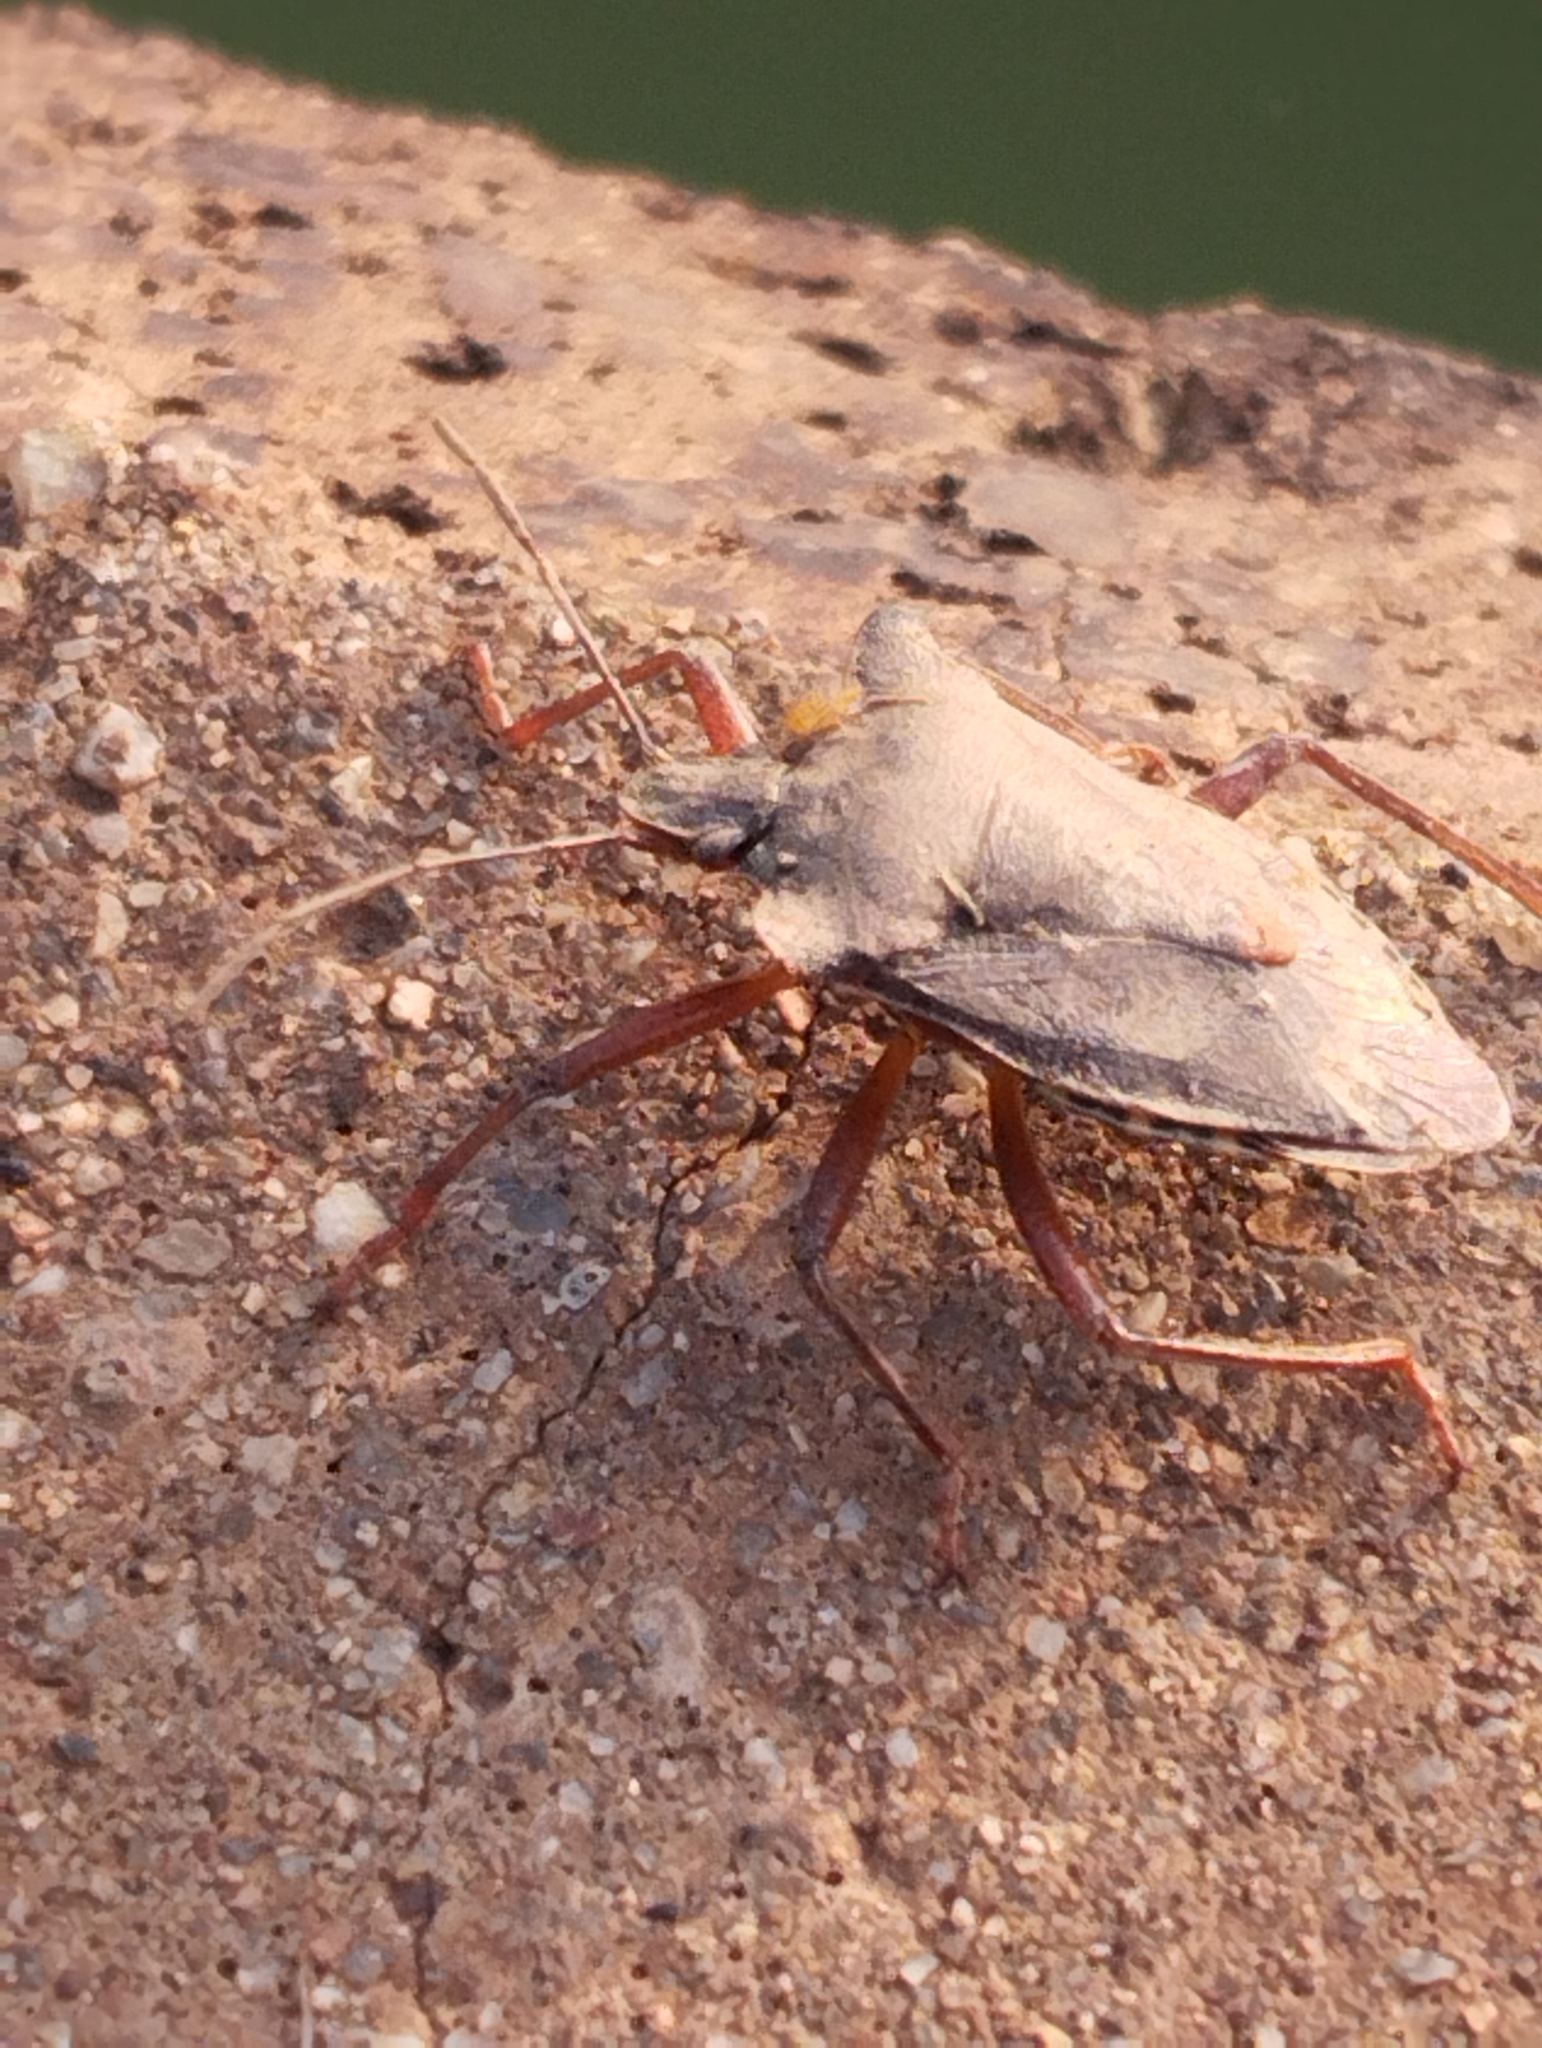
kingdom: Animalia
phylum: Arthropoda
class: Insecta
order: Hemiptera
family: Pentatomidae
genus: Pentatoma
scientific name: Pentatoma rufipes
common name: Forest bug
